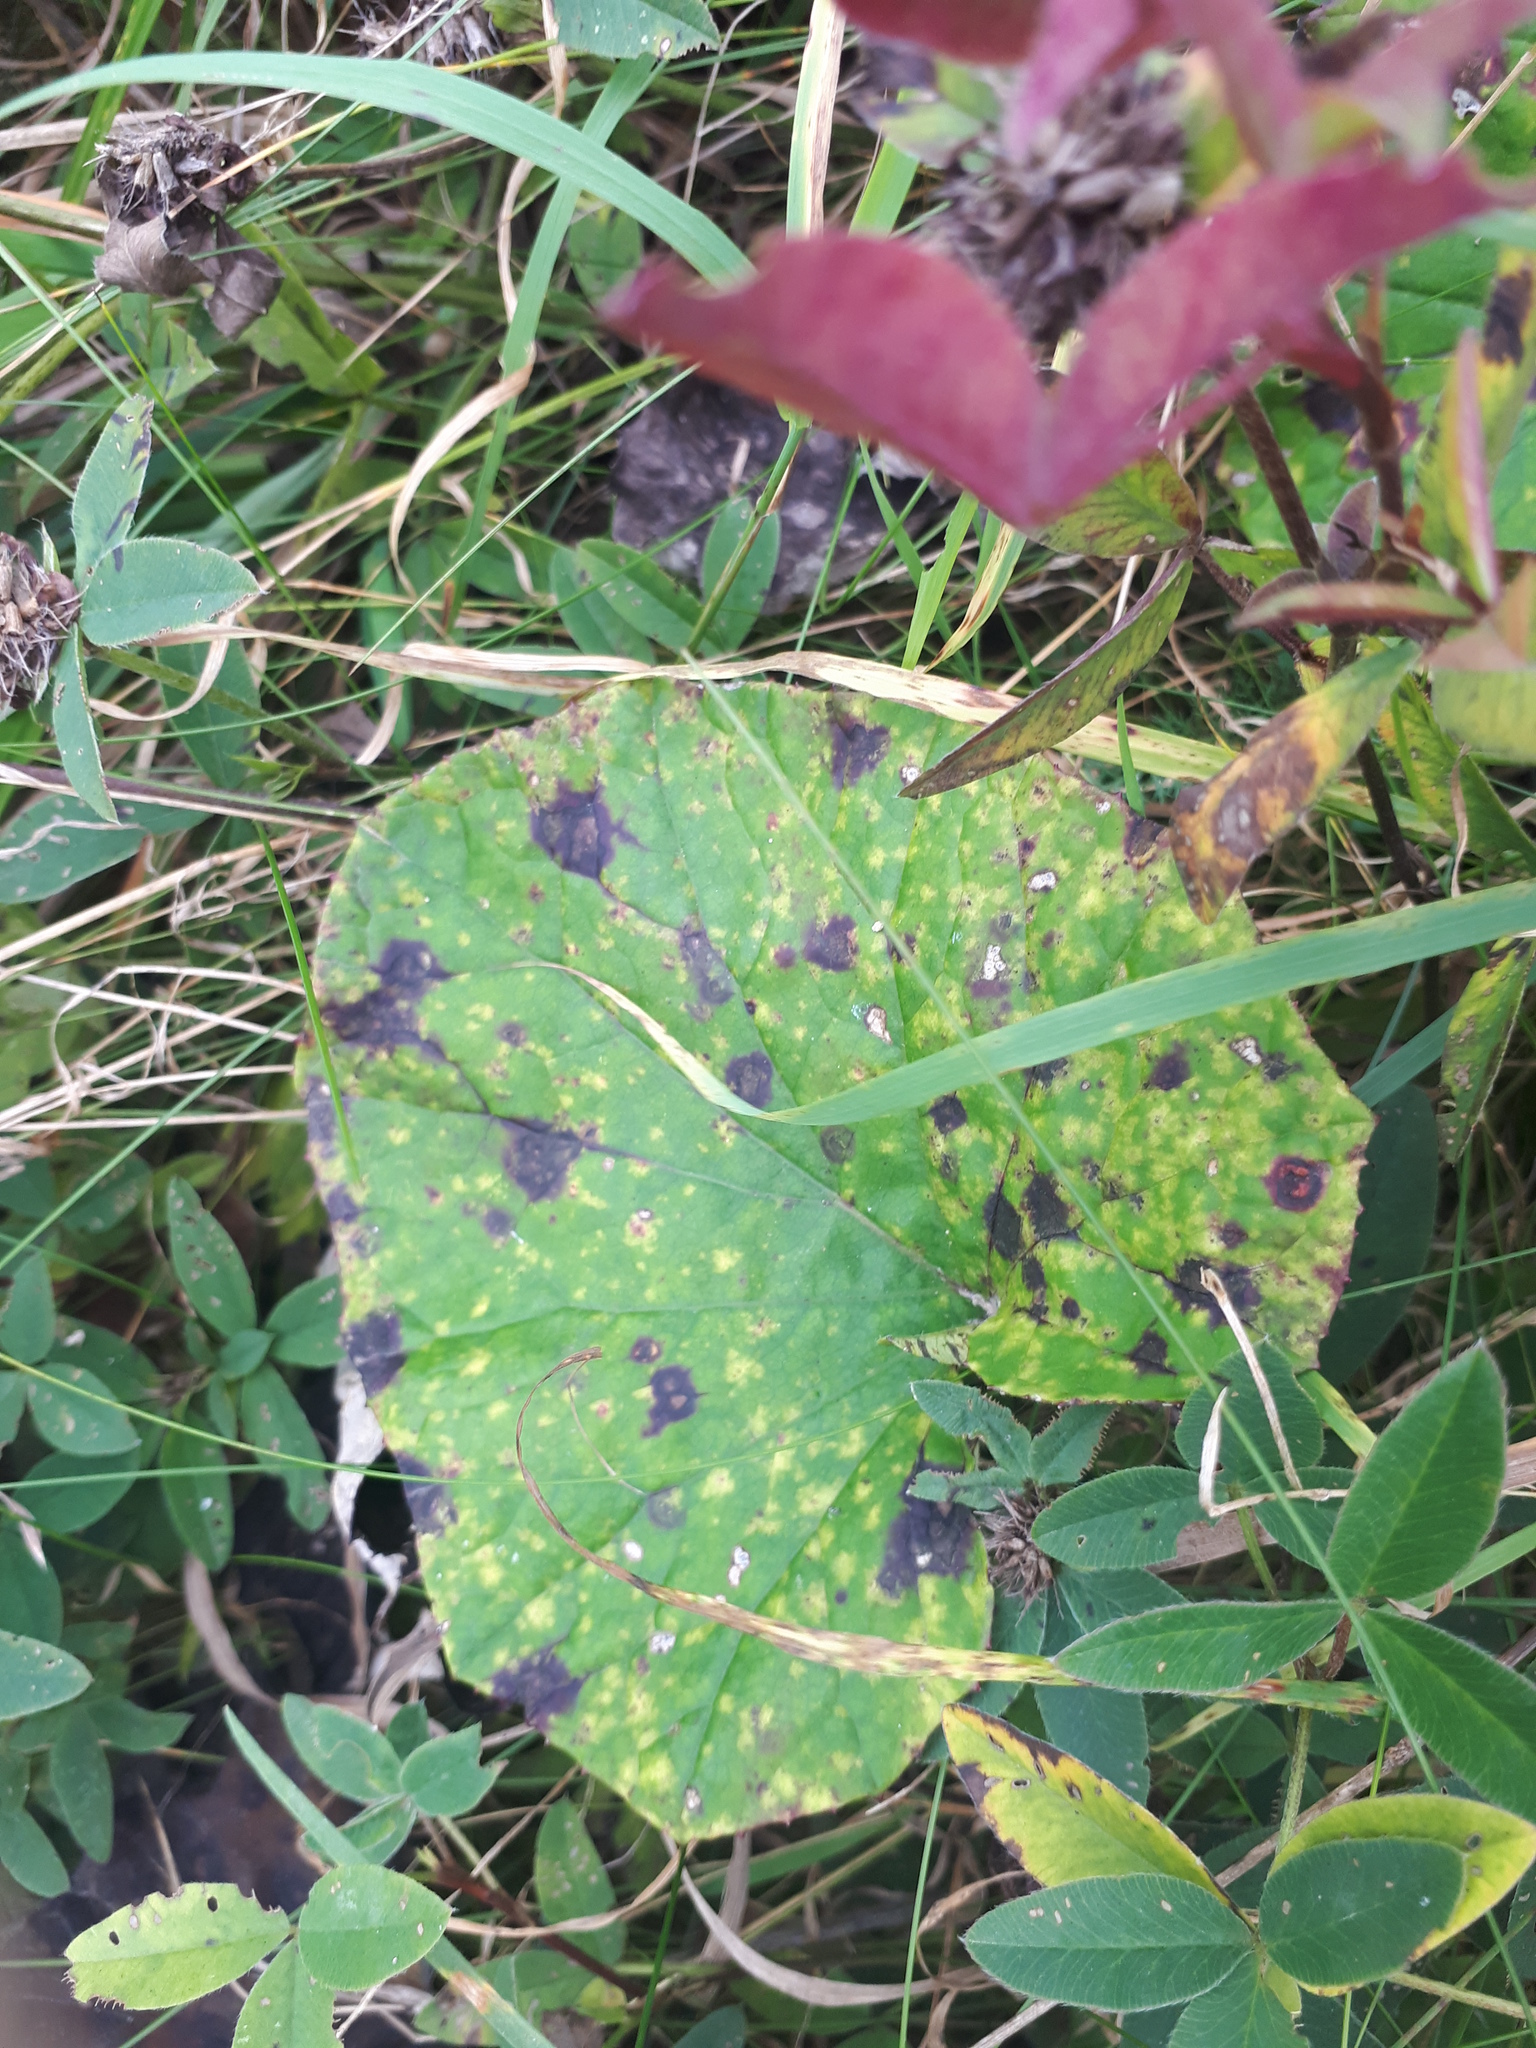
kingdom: Plantae
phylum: Tracheophyta
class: Magnoliopsida
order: Asterales
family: Asteraceae
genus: Tussilago
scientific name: Tussilago farfara
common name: Coltsfoot
